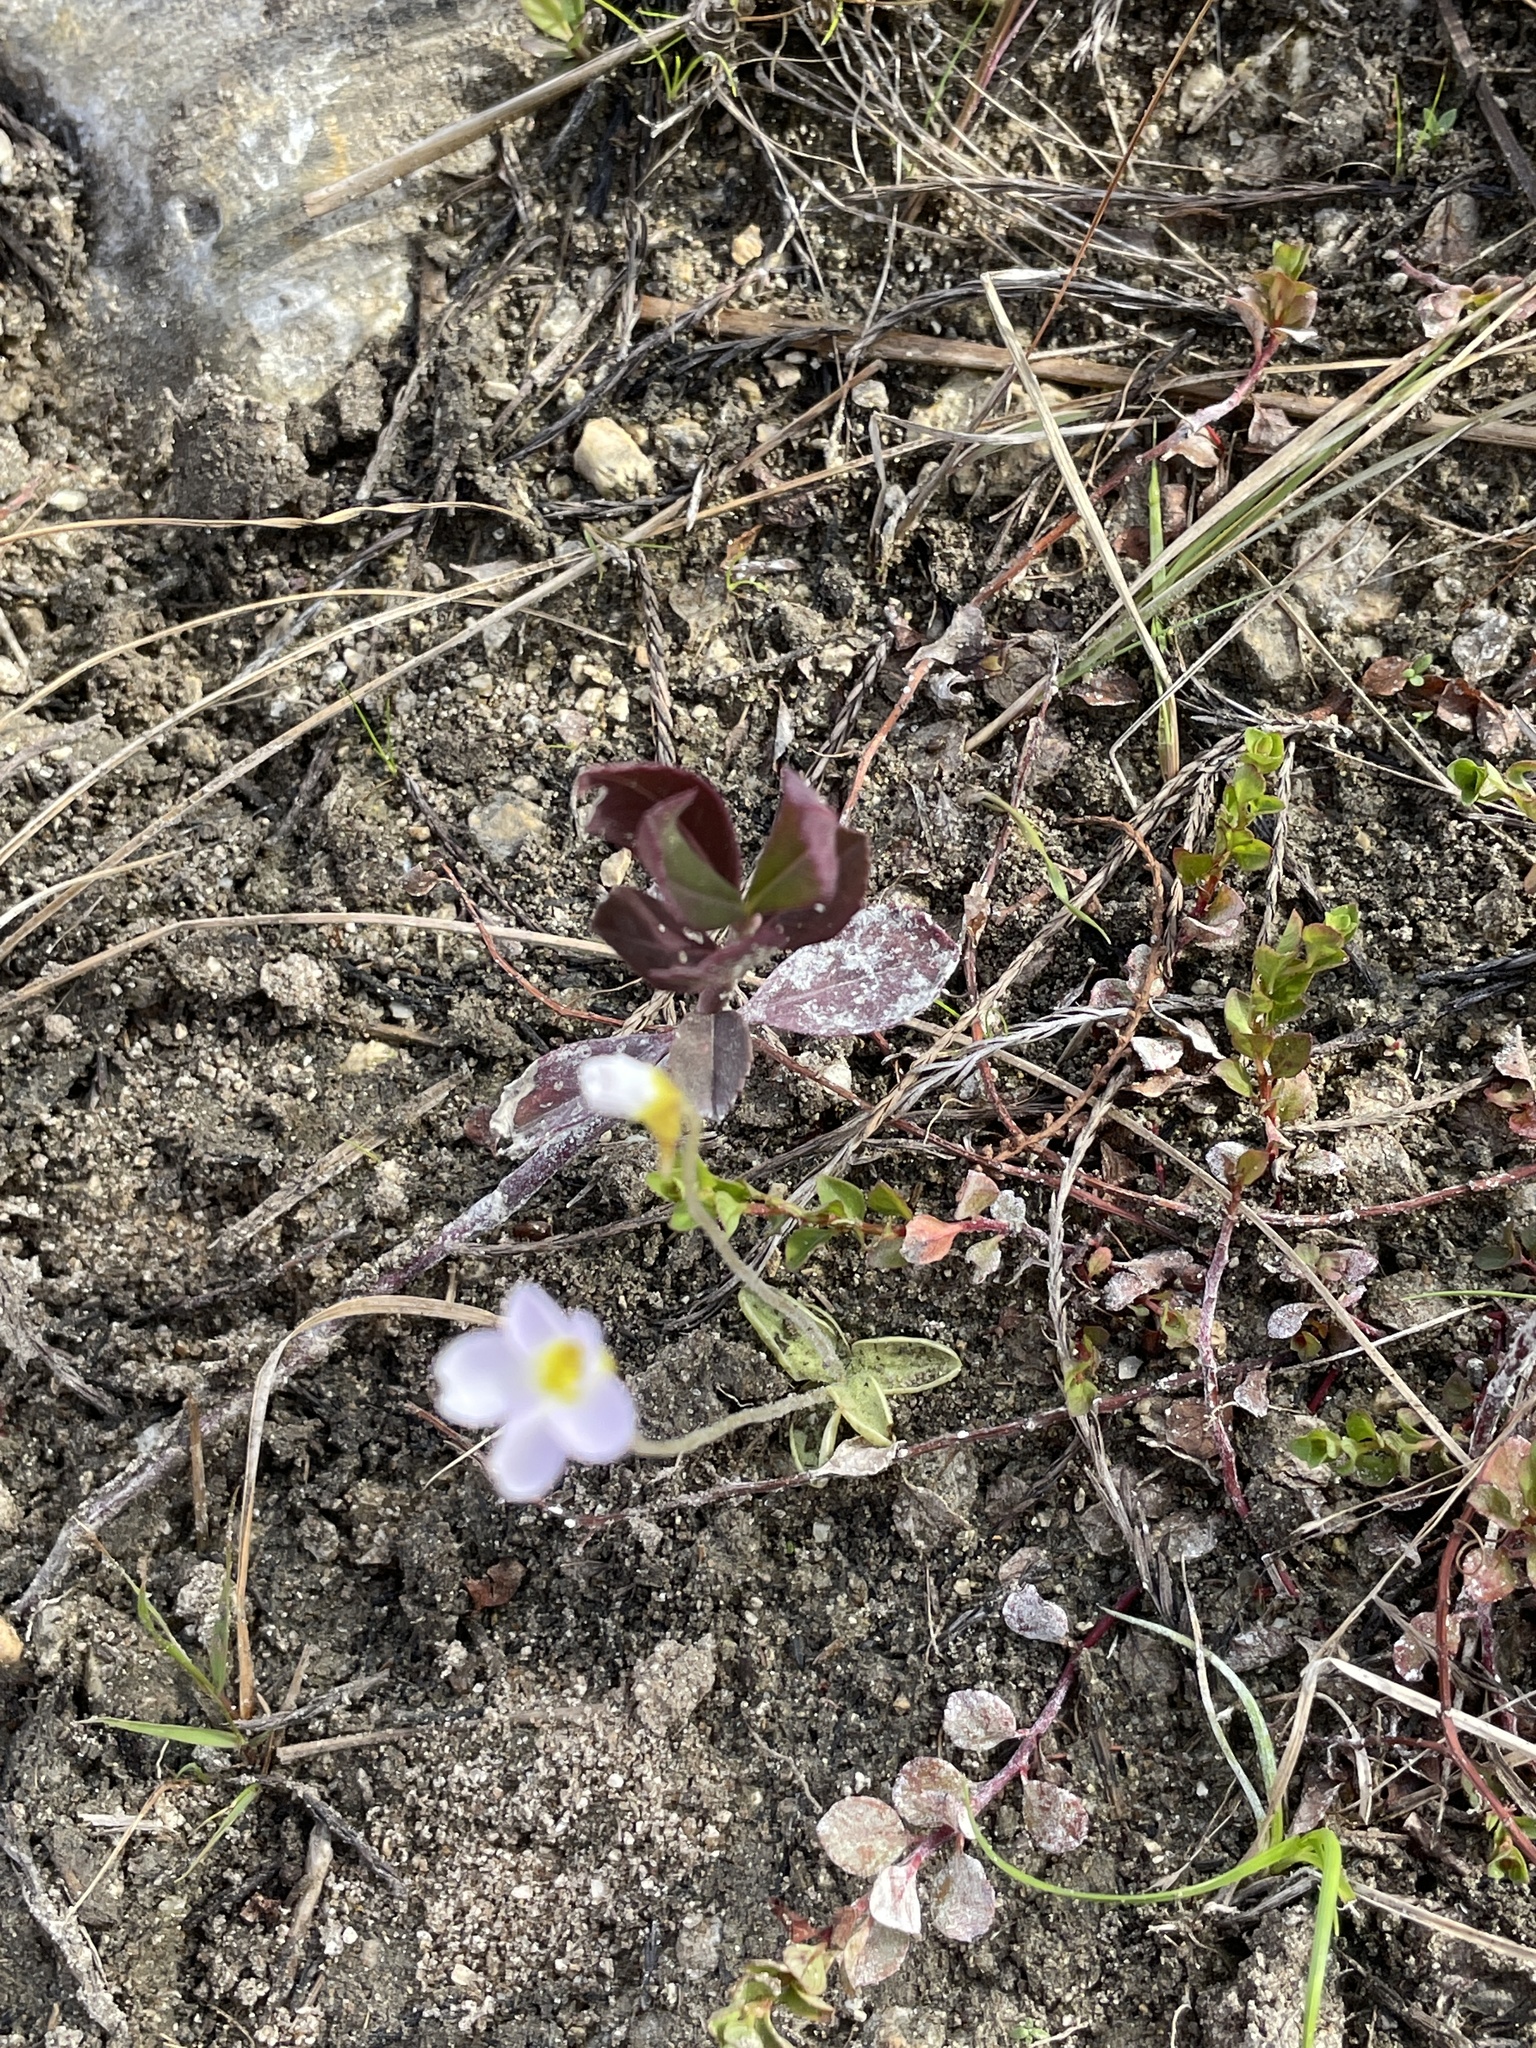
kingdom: Plantae
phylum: Tracheophyta
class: Magnoliopsida
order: Lamiales
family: Lentibulariaceae
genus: Pinguicula
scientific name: Pinguicula pumila
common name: Small butterwort
